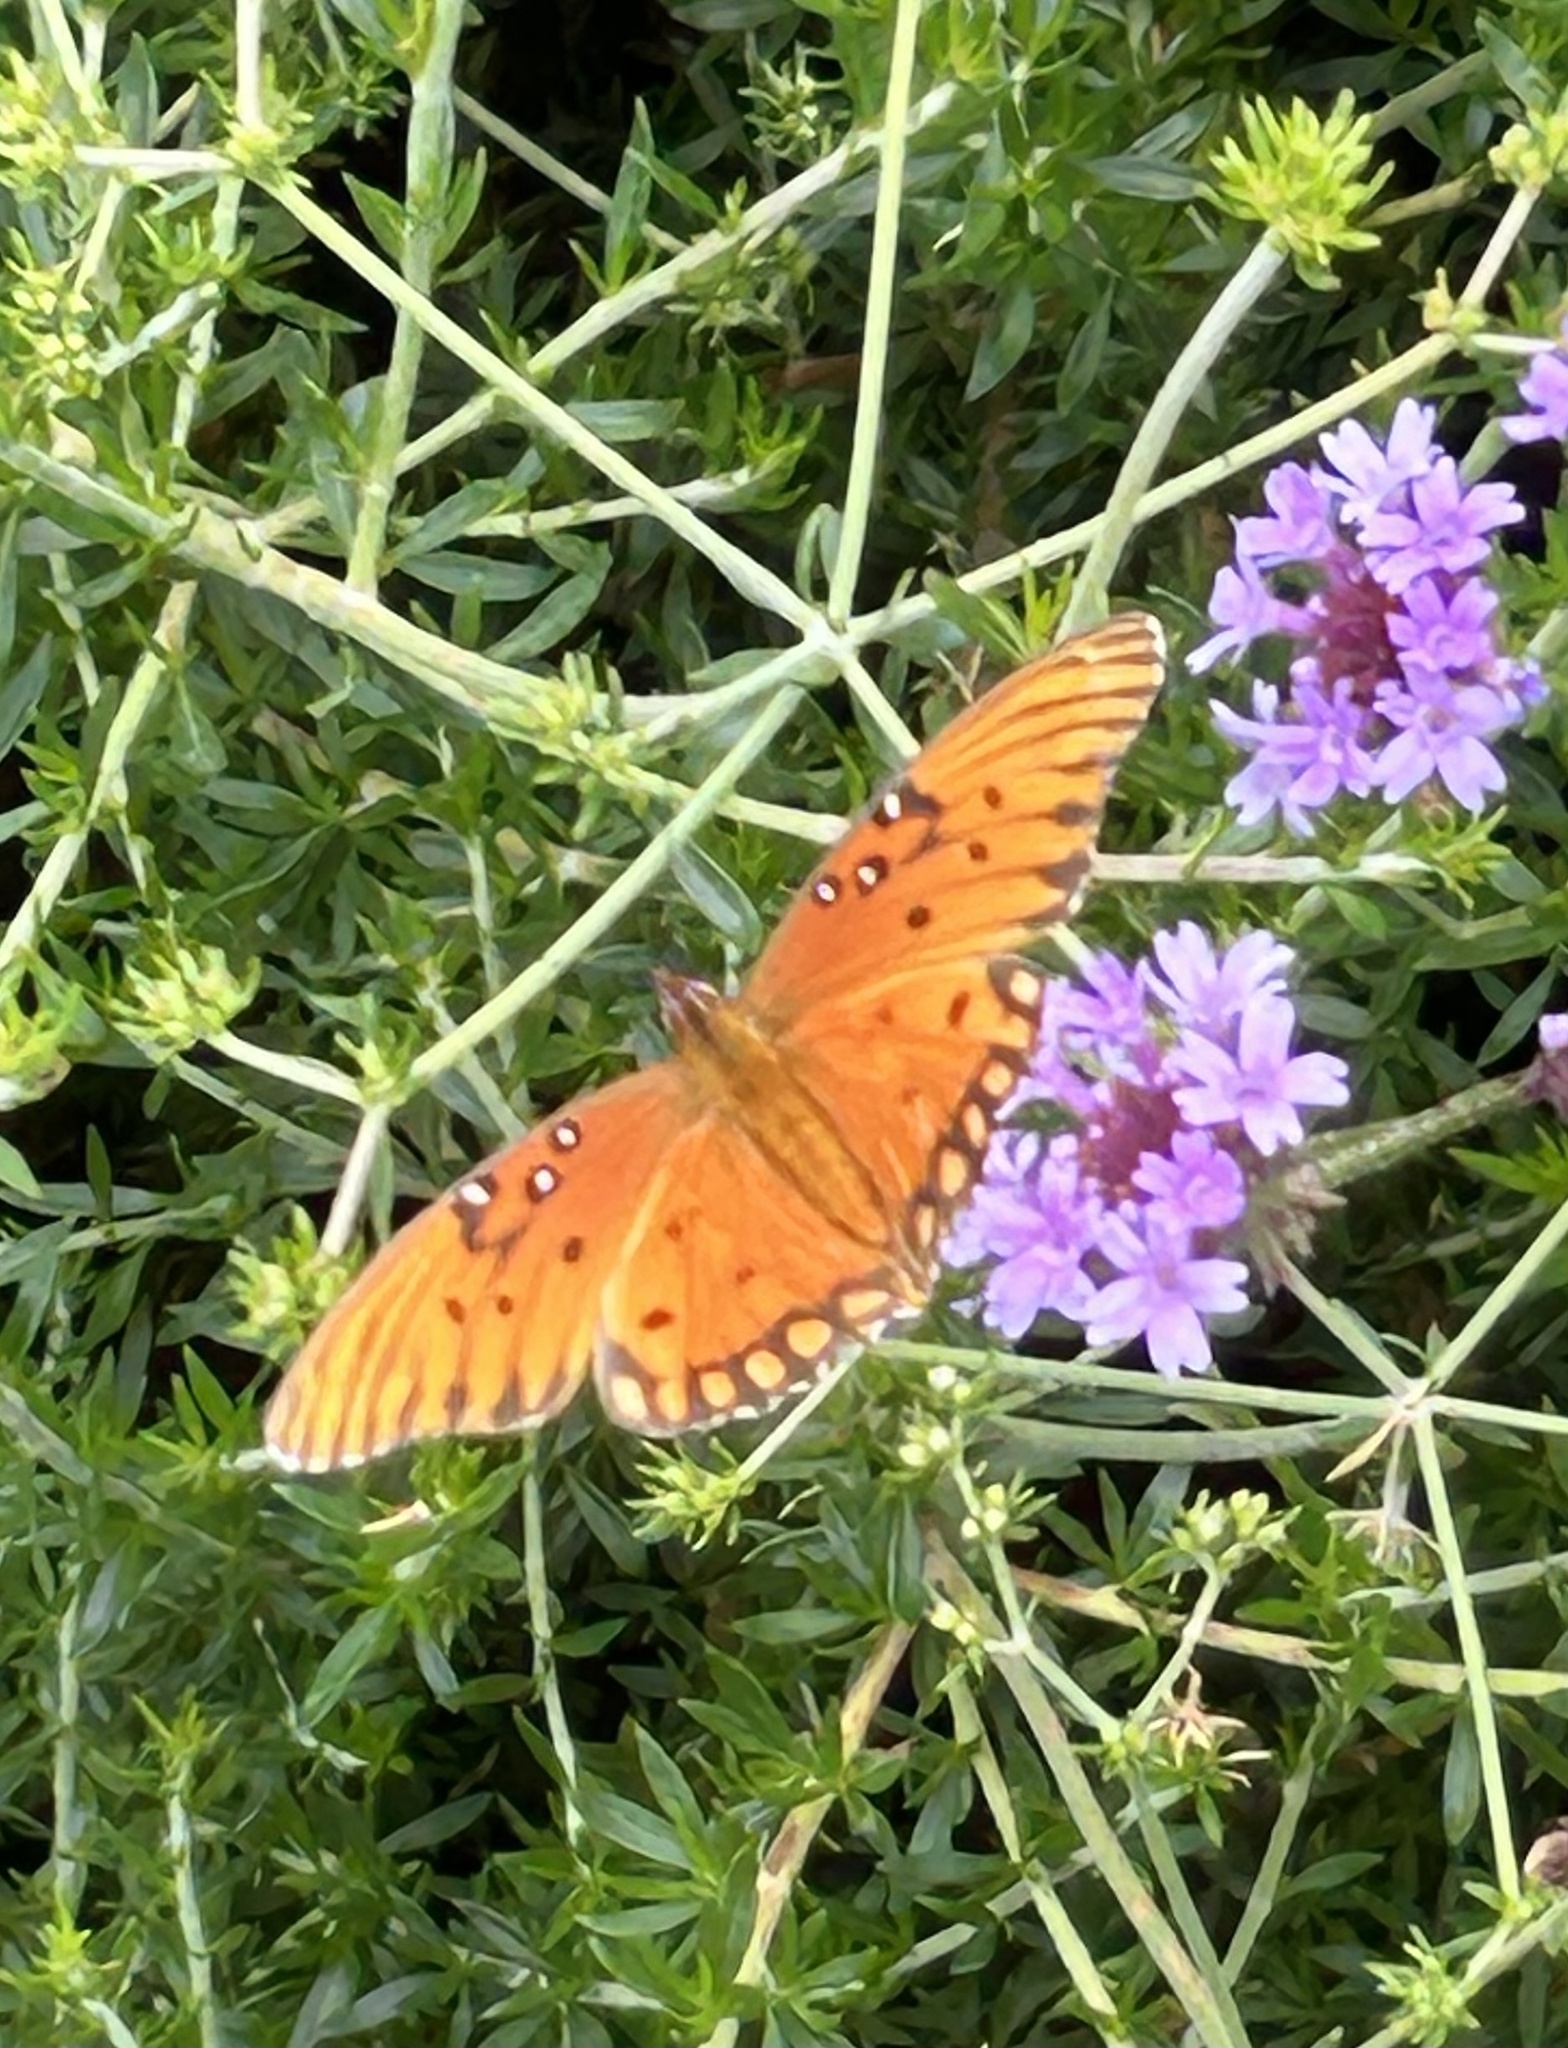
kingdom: Animalia
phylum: Arthropoda
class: Insecta
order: Lepidoptera
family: Nymphalidae
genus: Dione
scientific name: Dione vanillae
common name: Gulf fritillary
